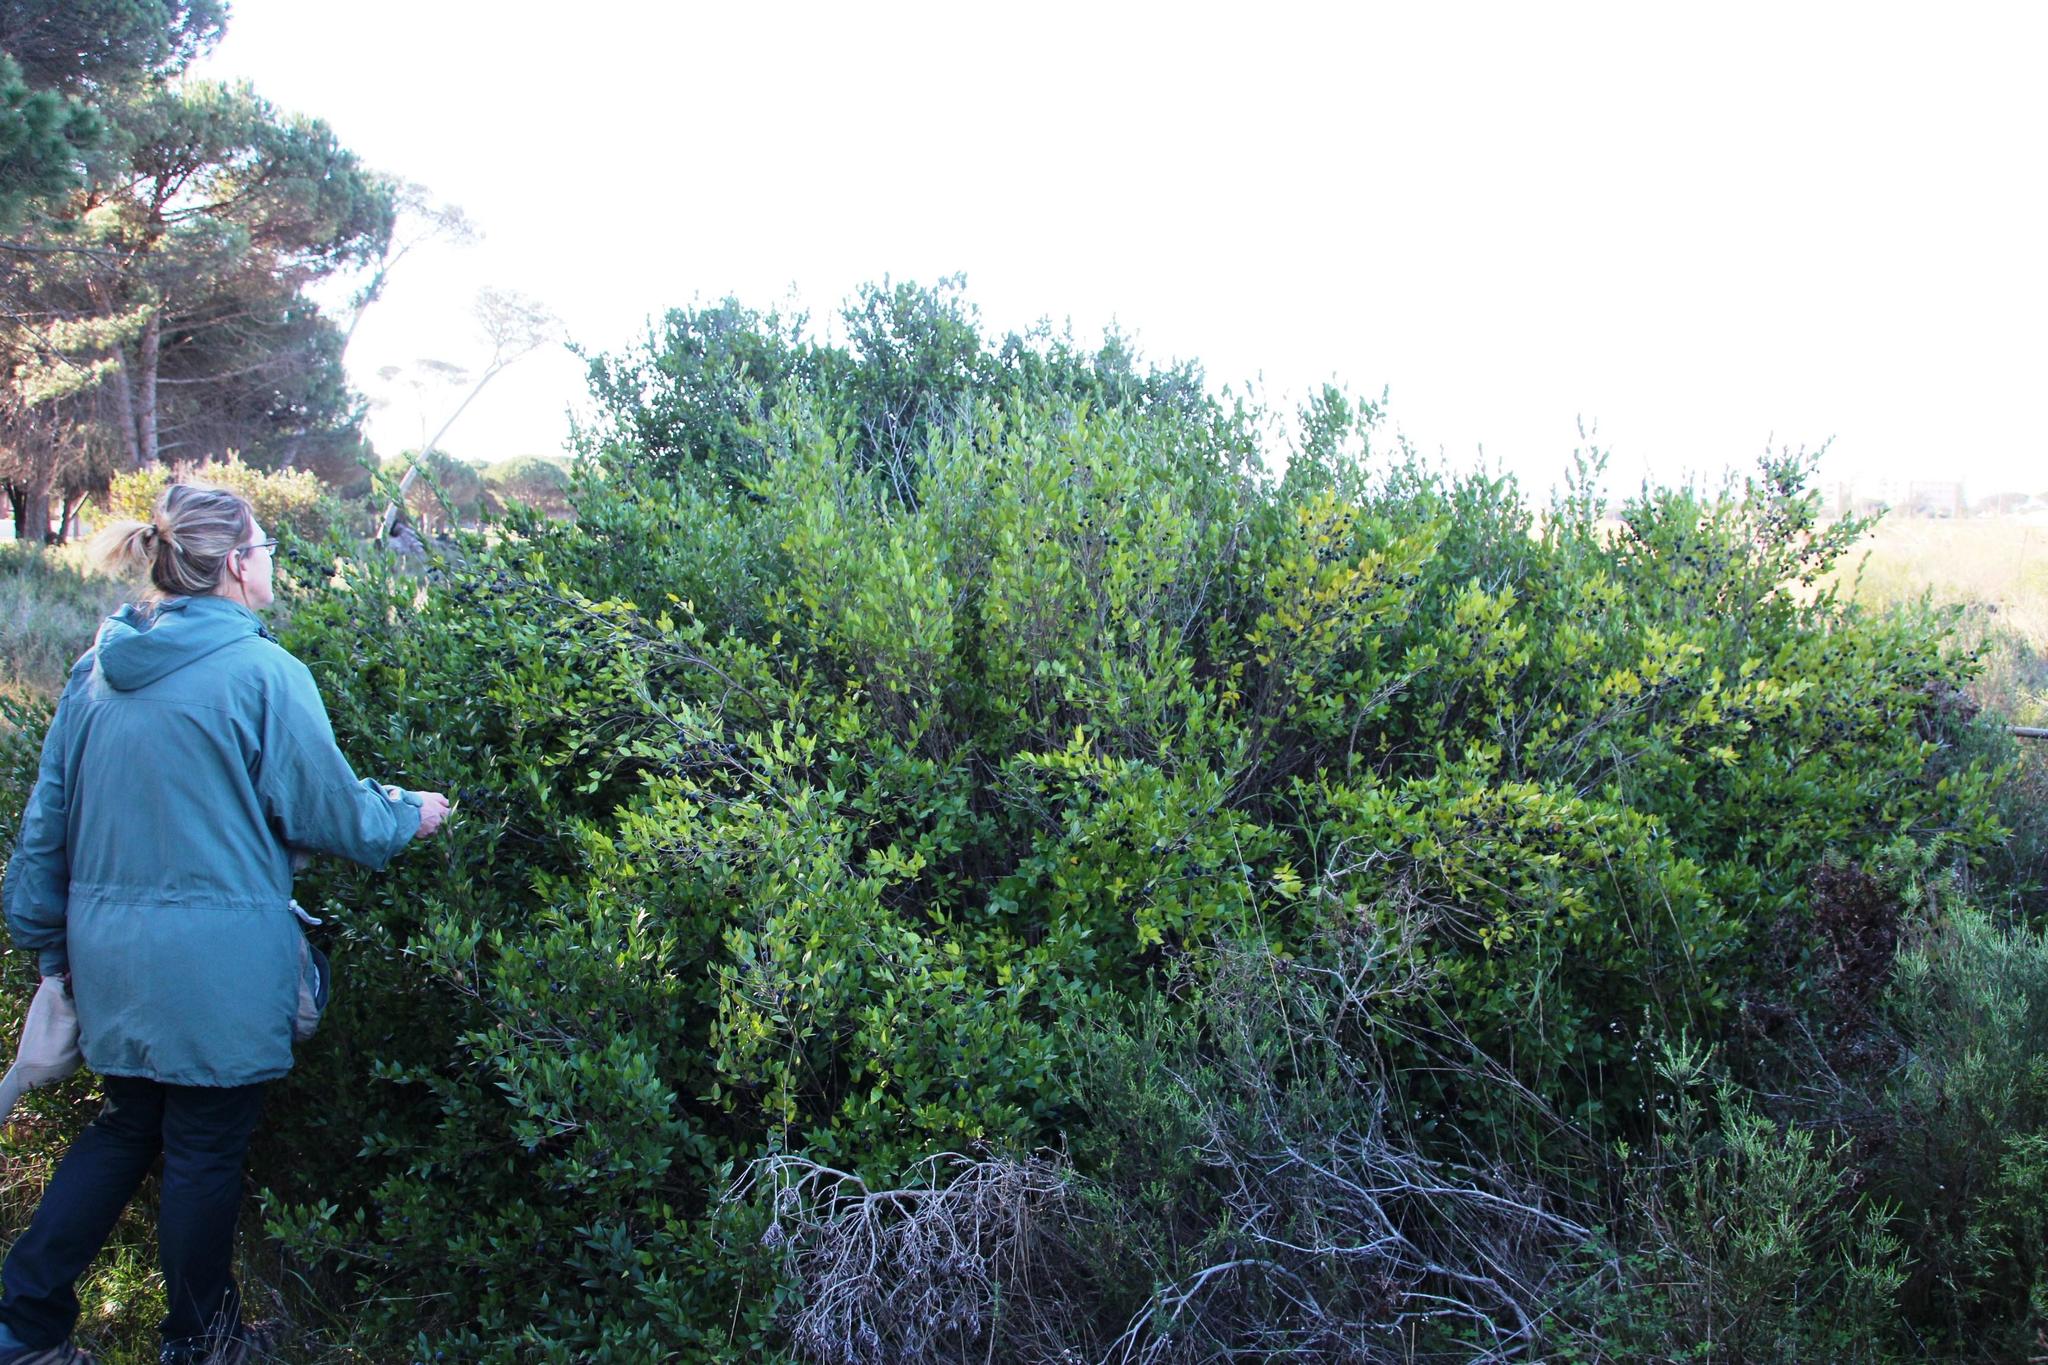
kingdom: Plantae
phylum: Tracheophyta
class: Magnoliopsida
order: Myrtales
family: Myrtaceae
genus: Myrtus
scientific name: Myrtus communis
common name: Myrtle
